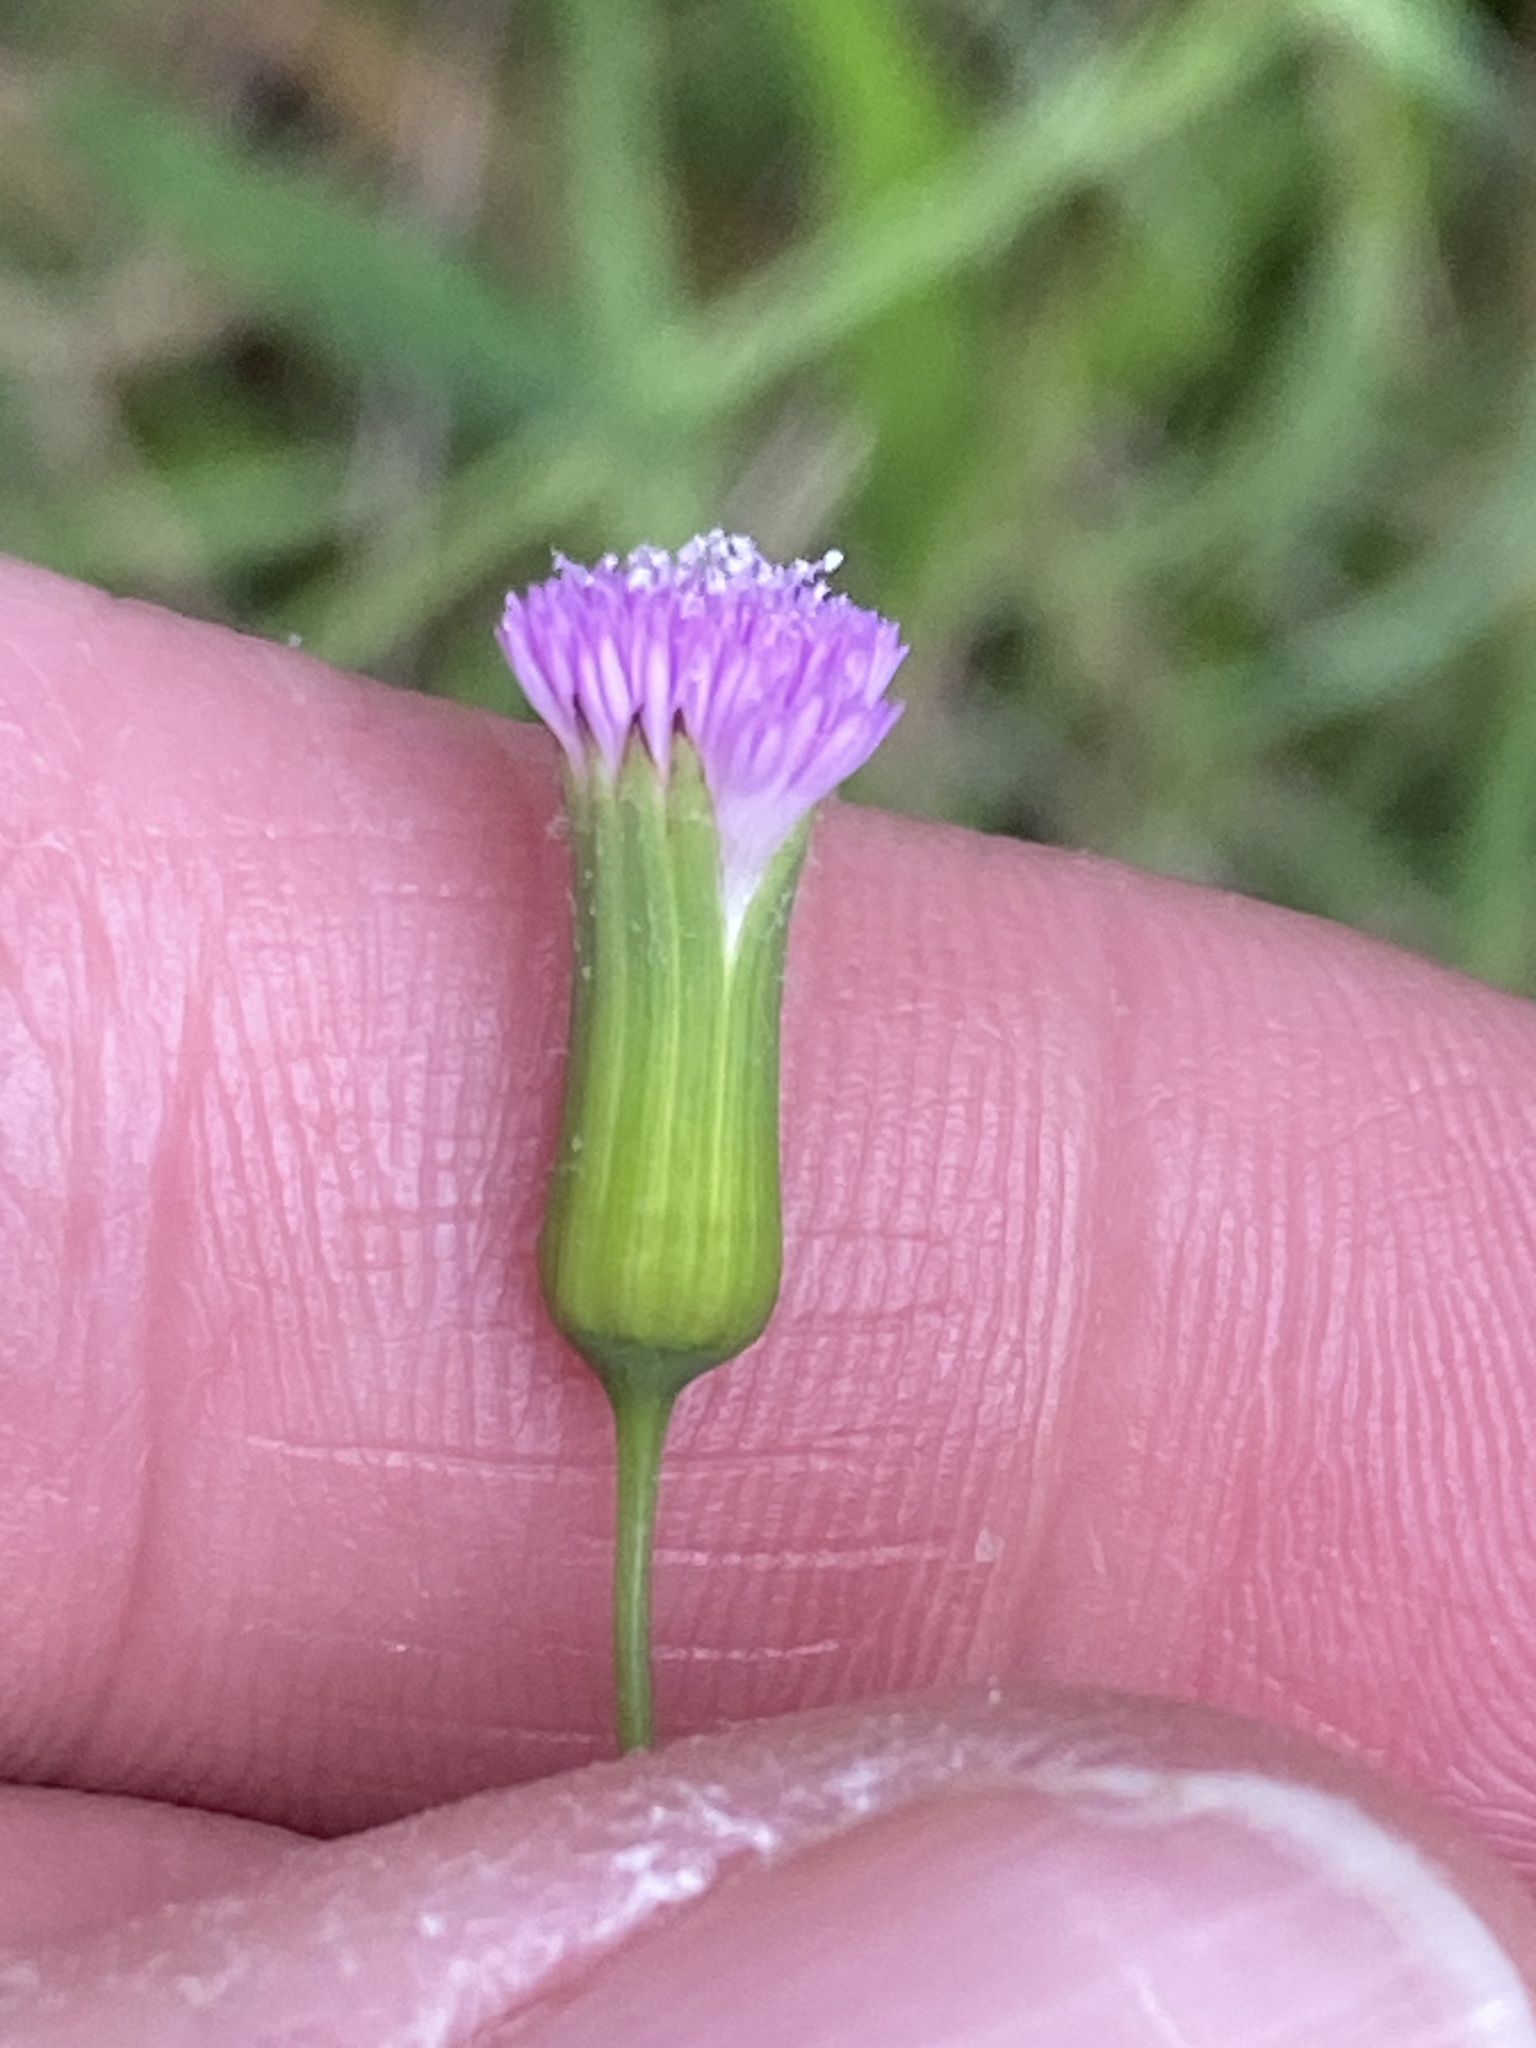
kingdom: Plantae
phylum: Tracheophyta
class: Magnoliopsida
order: Asterales
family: Asteraceae
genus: Emilia
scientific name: Emilia javanica
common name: Tassel-flower
